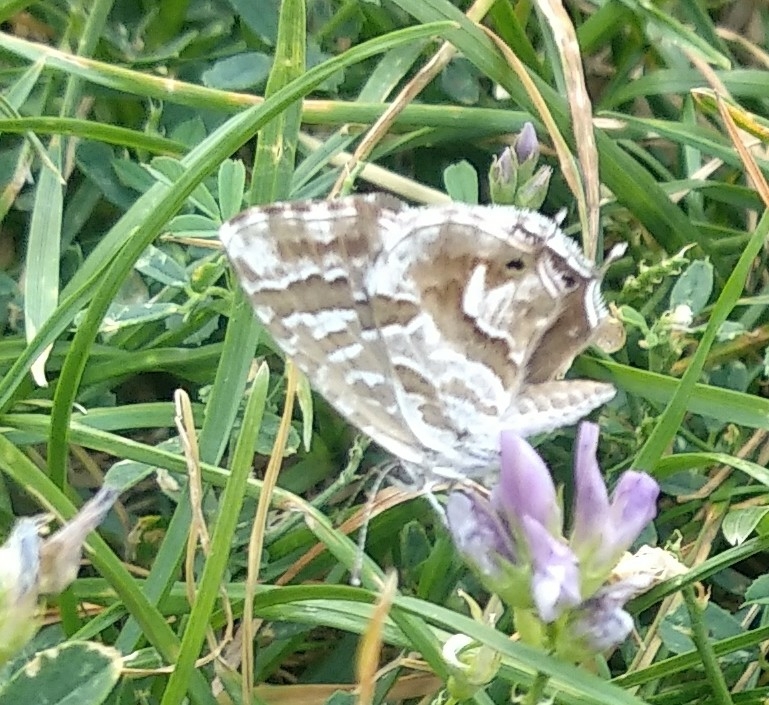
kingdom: Animalia
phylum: Arthropoda
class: Insecta
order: Lepidoptera
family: Lycaenidae
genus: Cacyreus
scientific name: Cacyreus marshalli
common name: Geranium bronze
